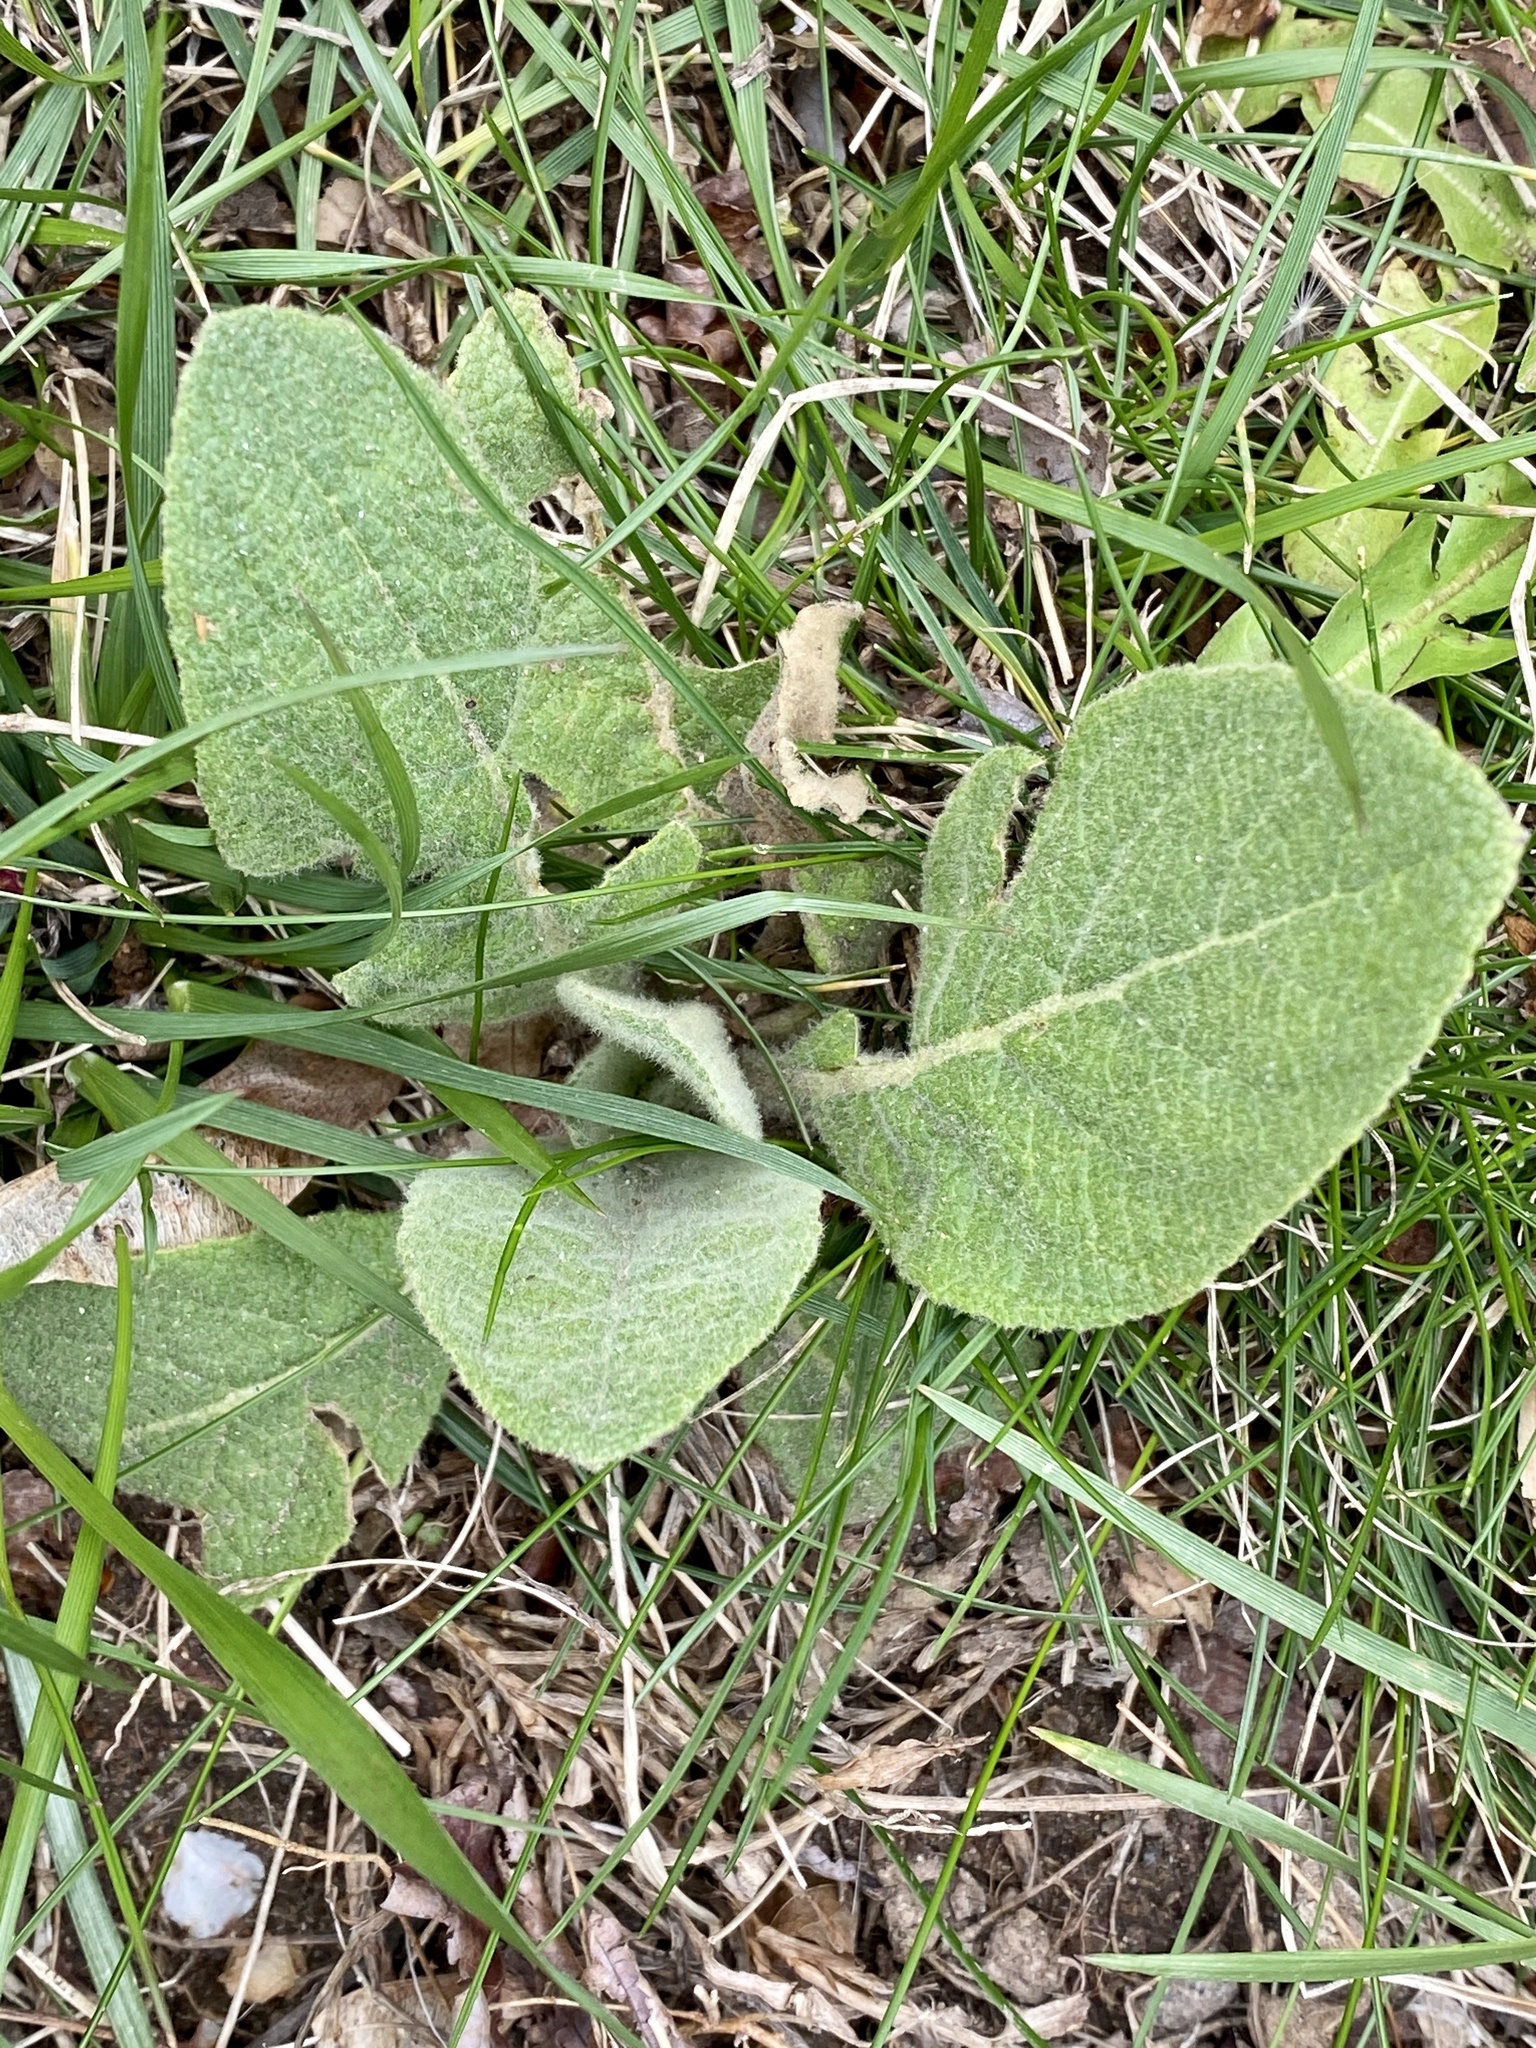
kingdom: Plantae
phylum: Tracheophyta
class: Magnoliopsida
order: Lamiales
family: Scrophulariaceae
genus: Verbascum
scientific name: Verbascum thapsus
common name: Common mullein
